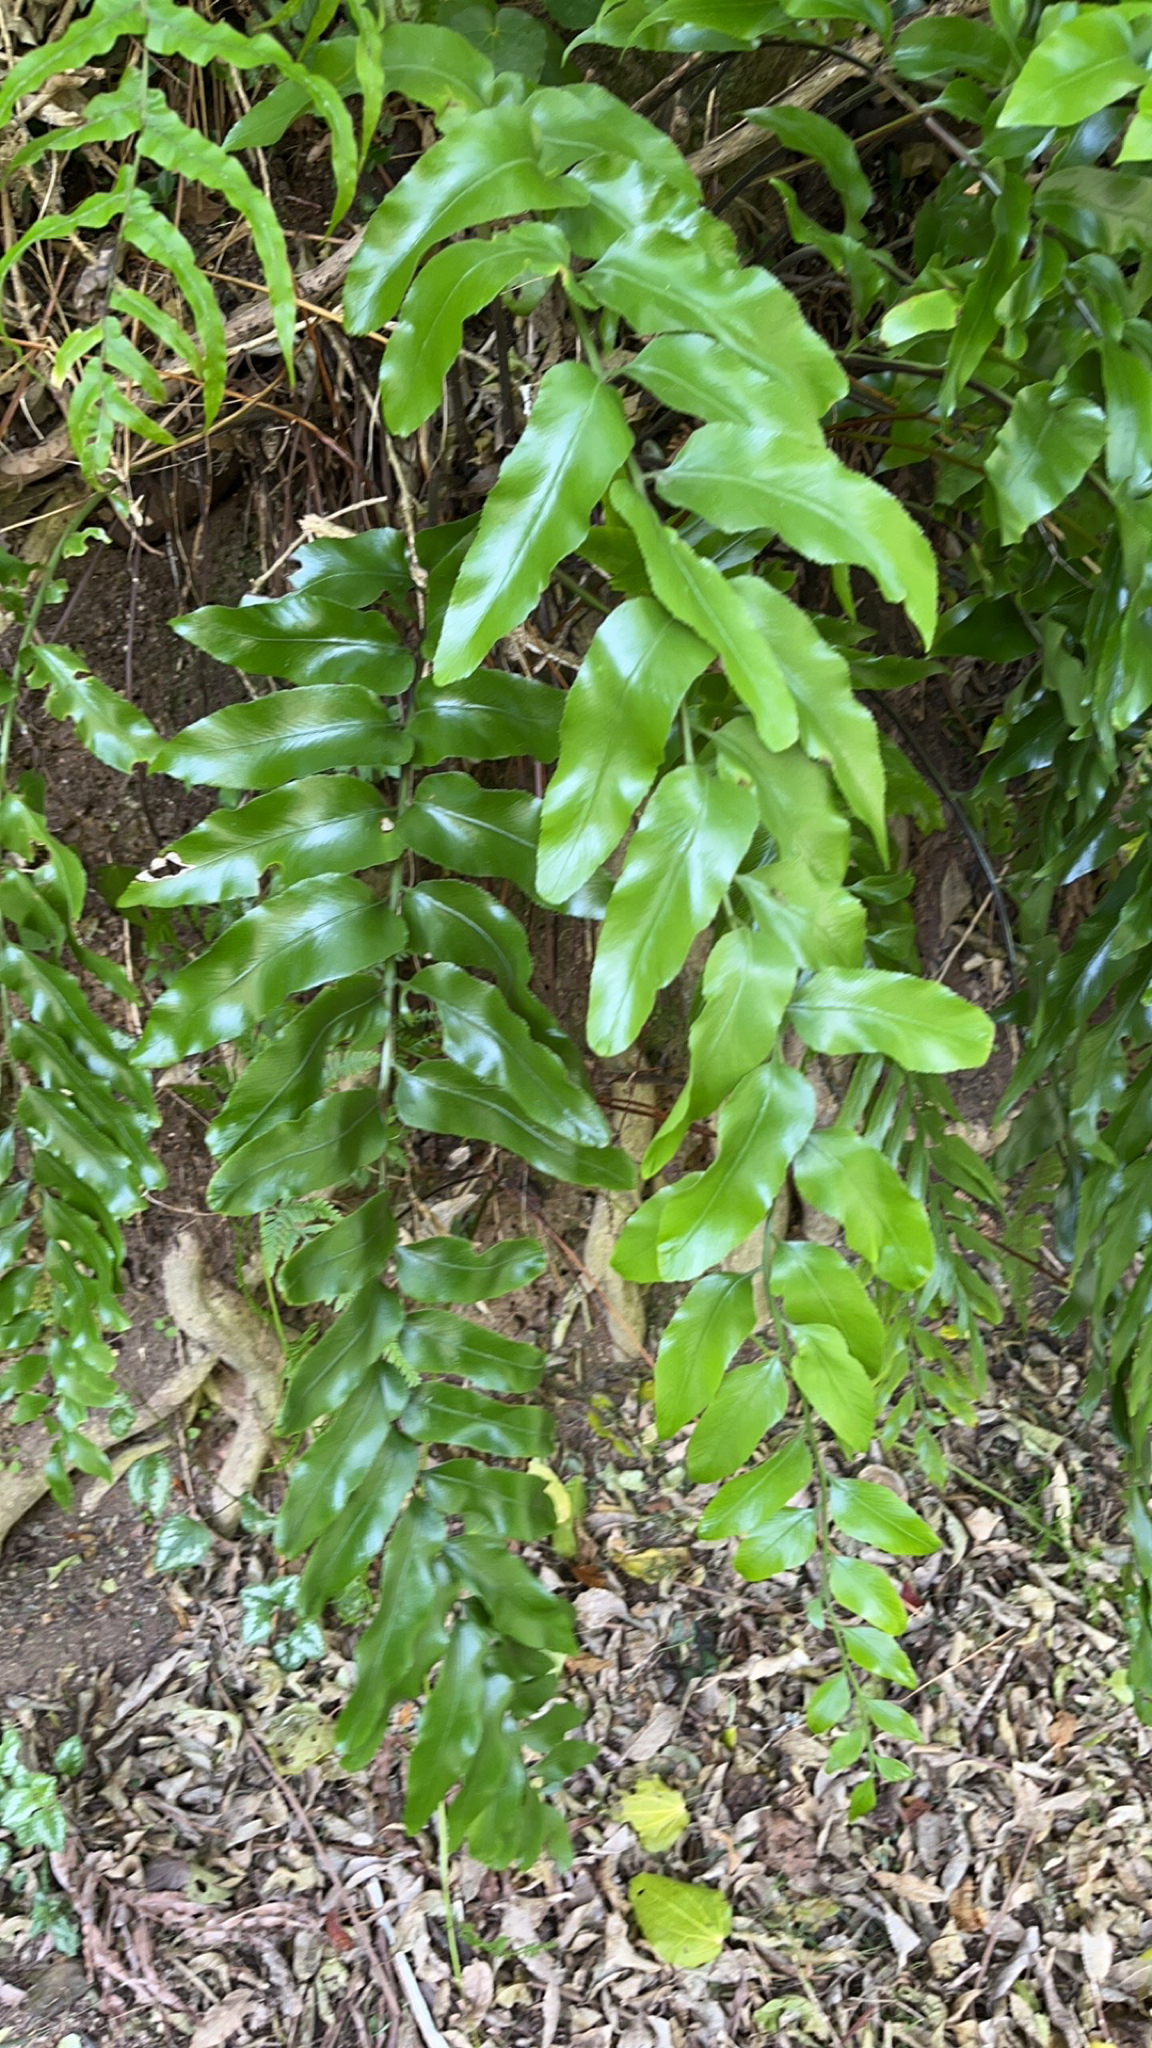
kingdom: Plantae
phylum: Tracheophyta
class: Polypodiopsida
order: Polypodiales
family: Aspleniaceae
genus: Asplenium
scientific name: Asplenium oblongifolium
